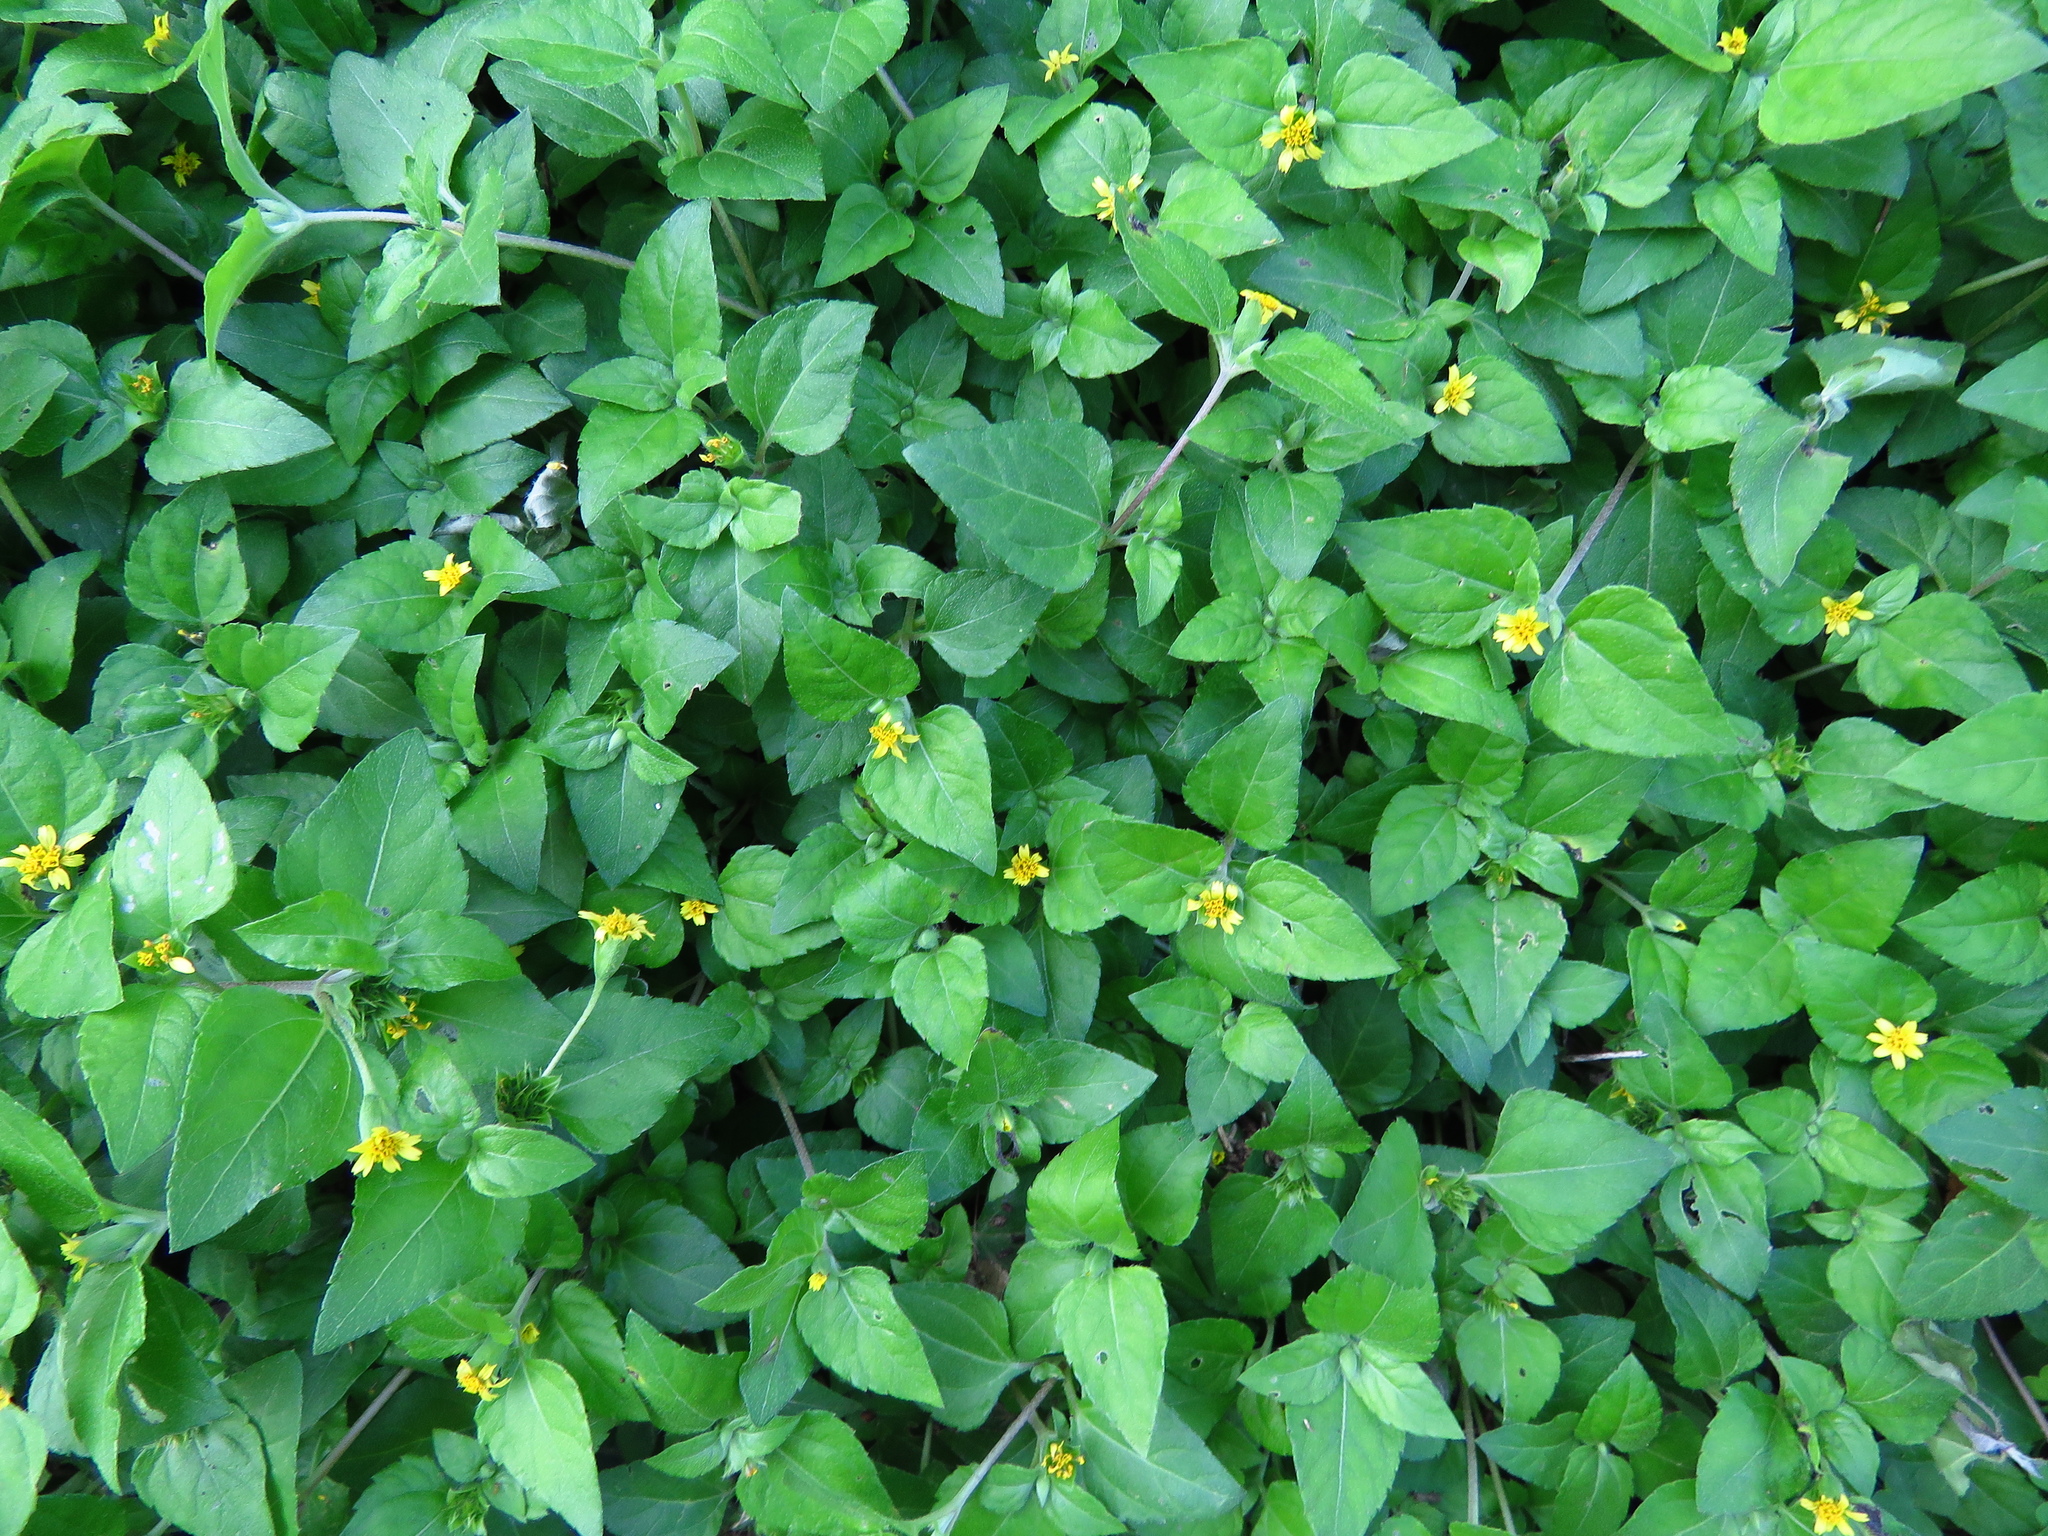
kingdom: Plantae
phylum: Tracheophyta
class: Magnoliopsida
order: Asterales
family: Asteraceae
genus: Calyptocarpus
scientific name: Calyptocarpus vialis
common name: Straggler daisy
